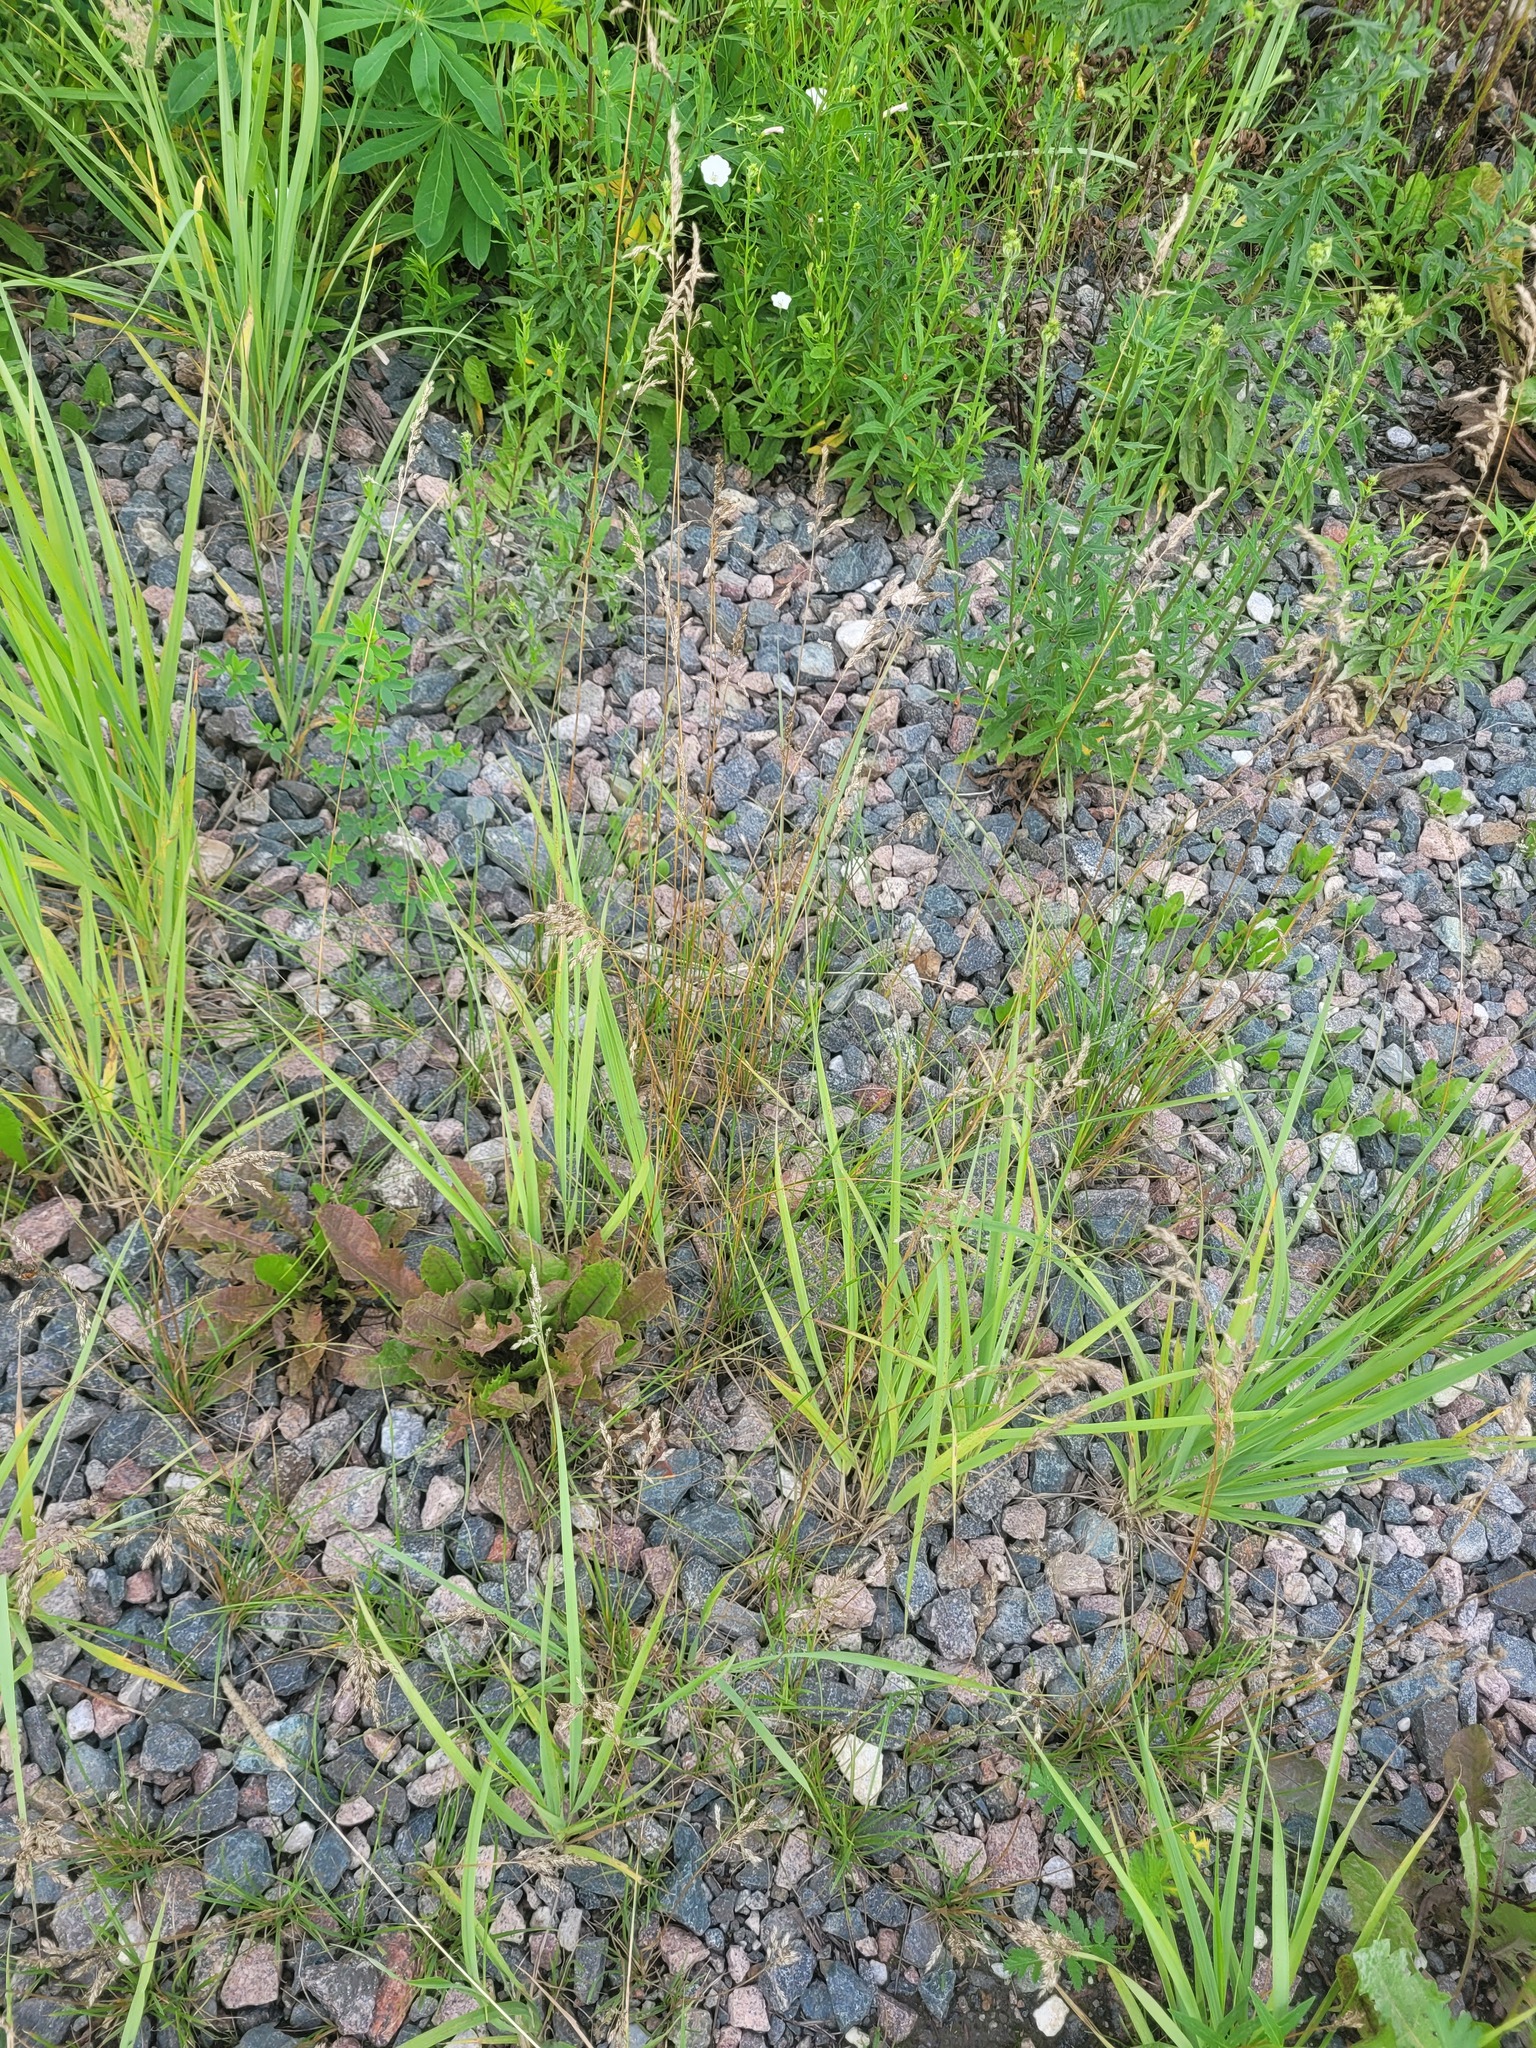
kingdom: Plantae
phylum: Tracheophyta
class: Liliopsida
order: Poales
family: Poaceae
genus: Poa
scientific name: Poa angustifolia
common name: Narrow-leaved meadow-grass
